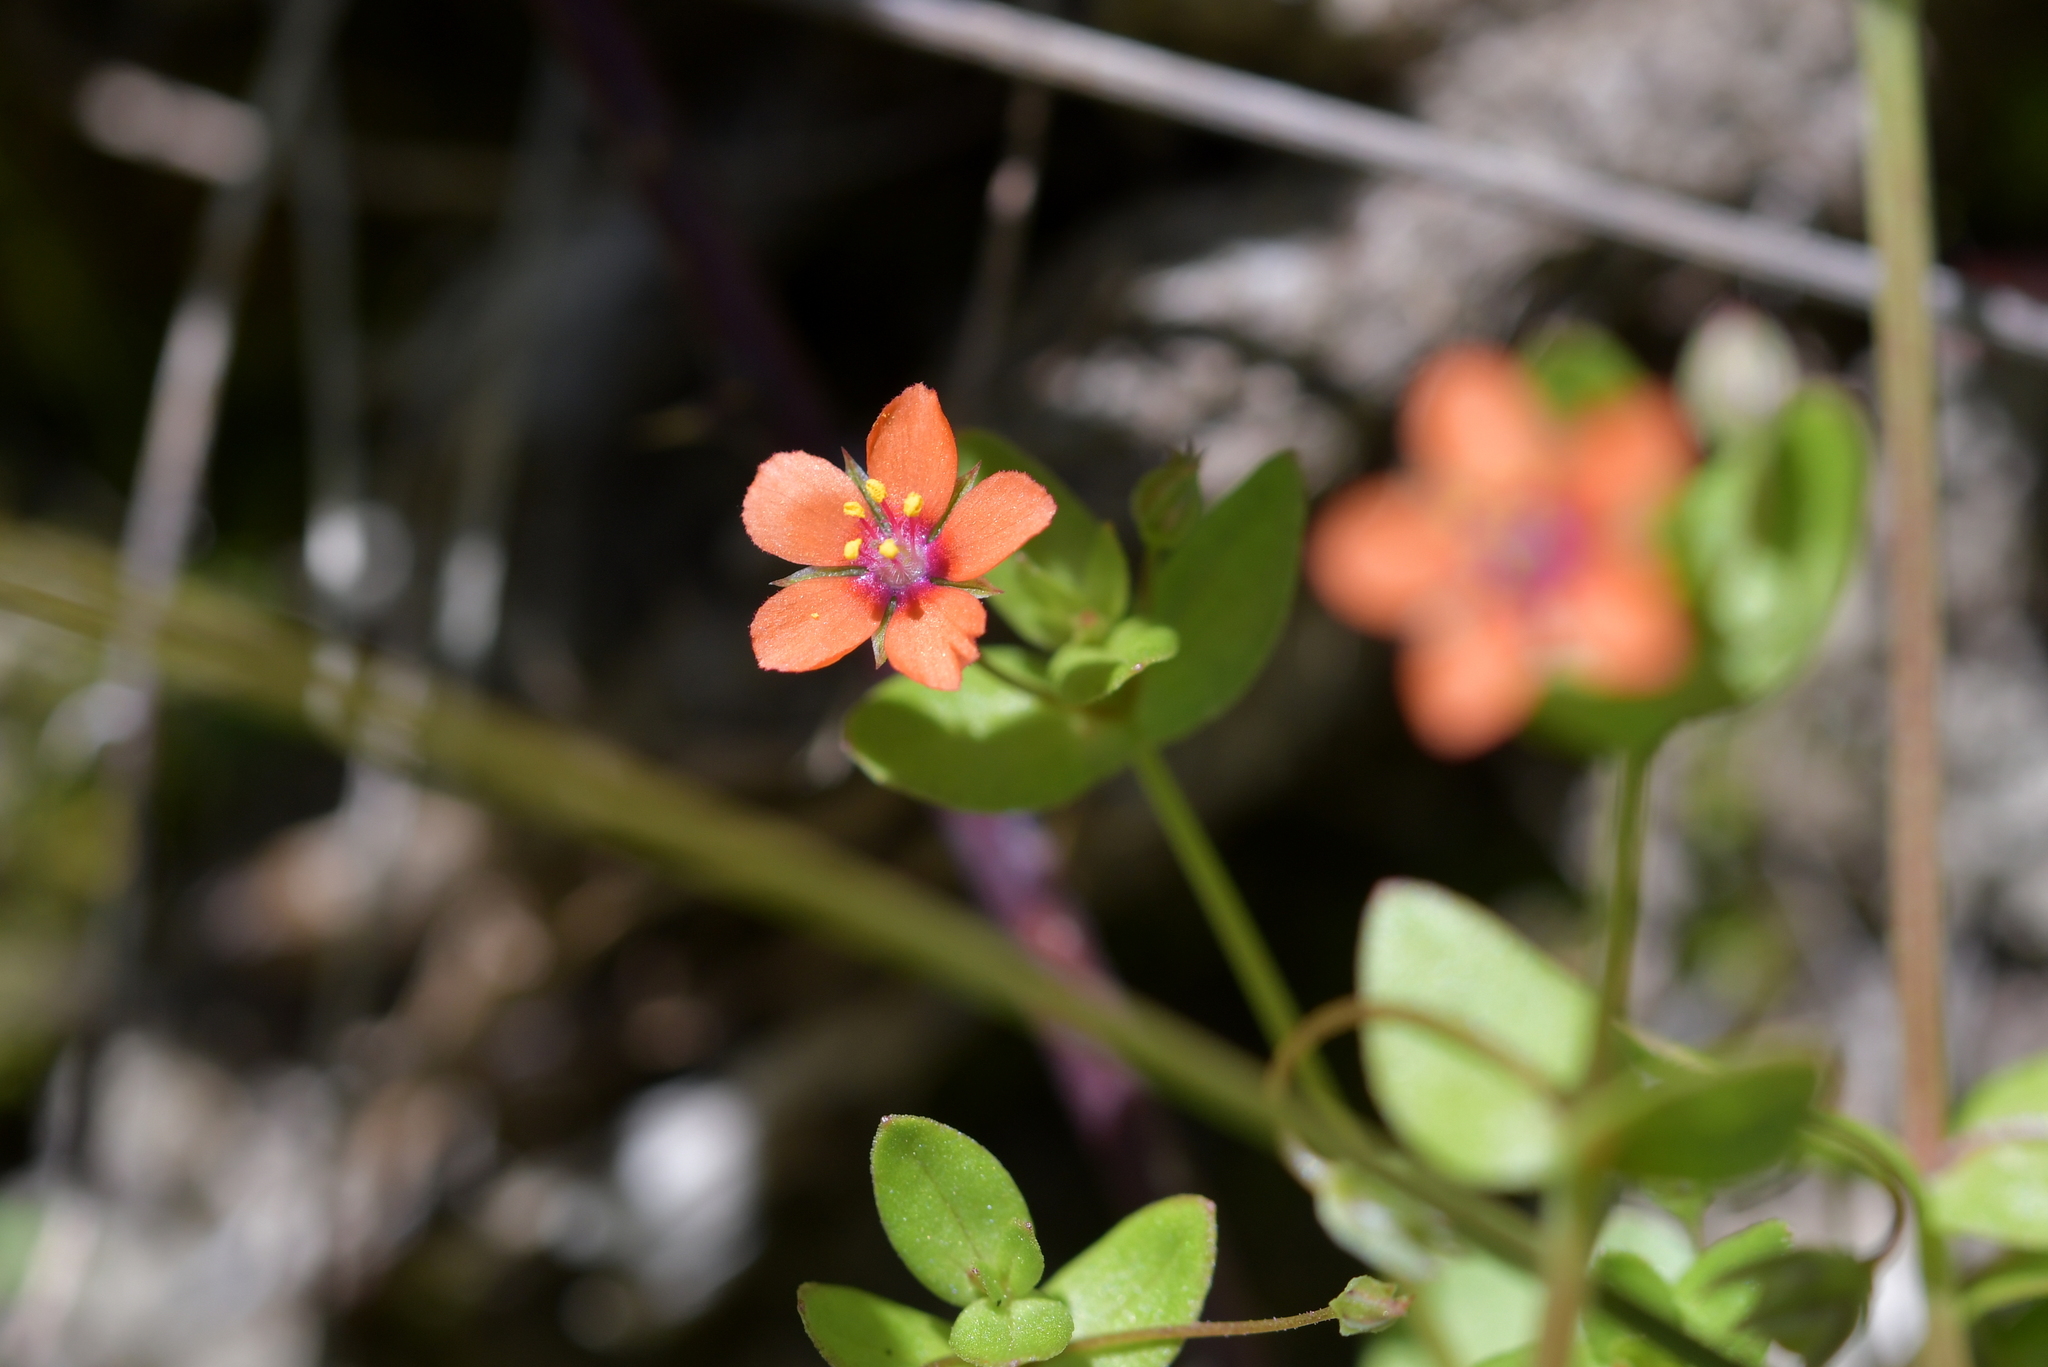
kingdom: Plantae
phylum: Tracheophyta
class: Magnoliopsida
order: Ericales
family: Primulaceae
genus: Lysimachia
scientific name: Lysimachia arvensis
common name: Scarlet pimpernel
